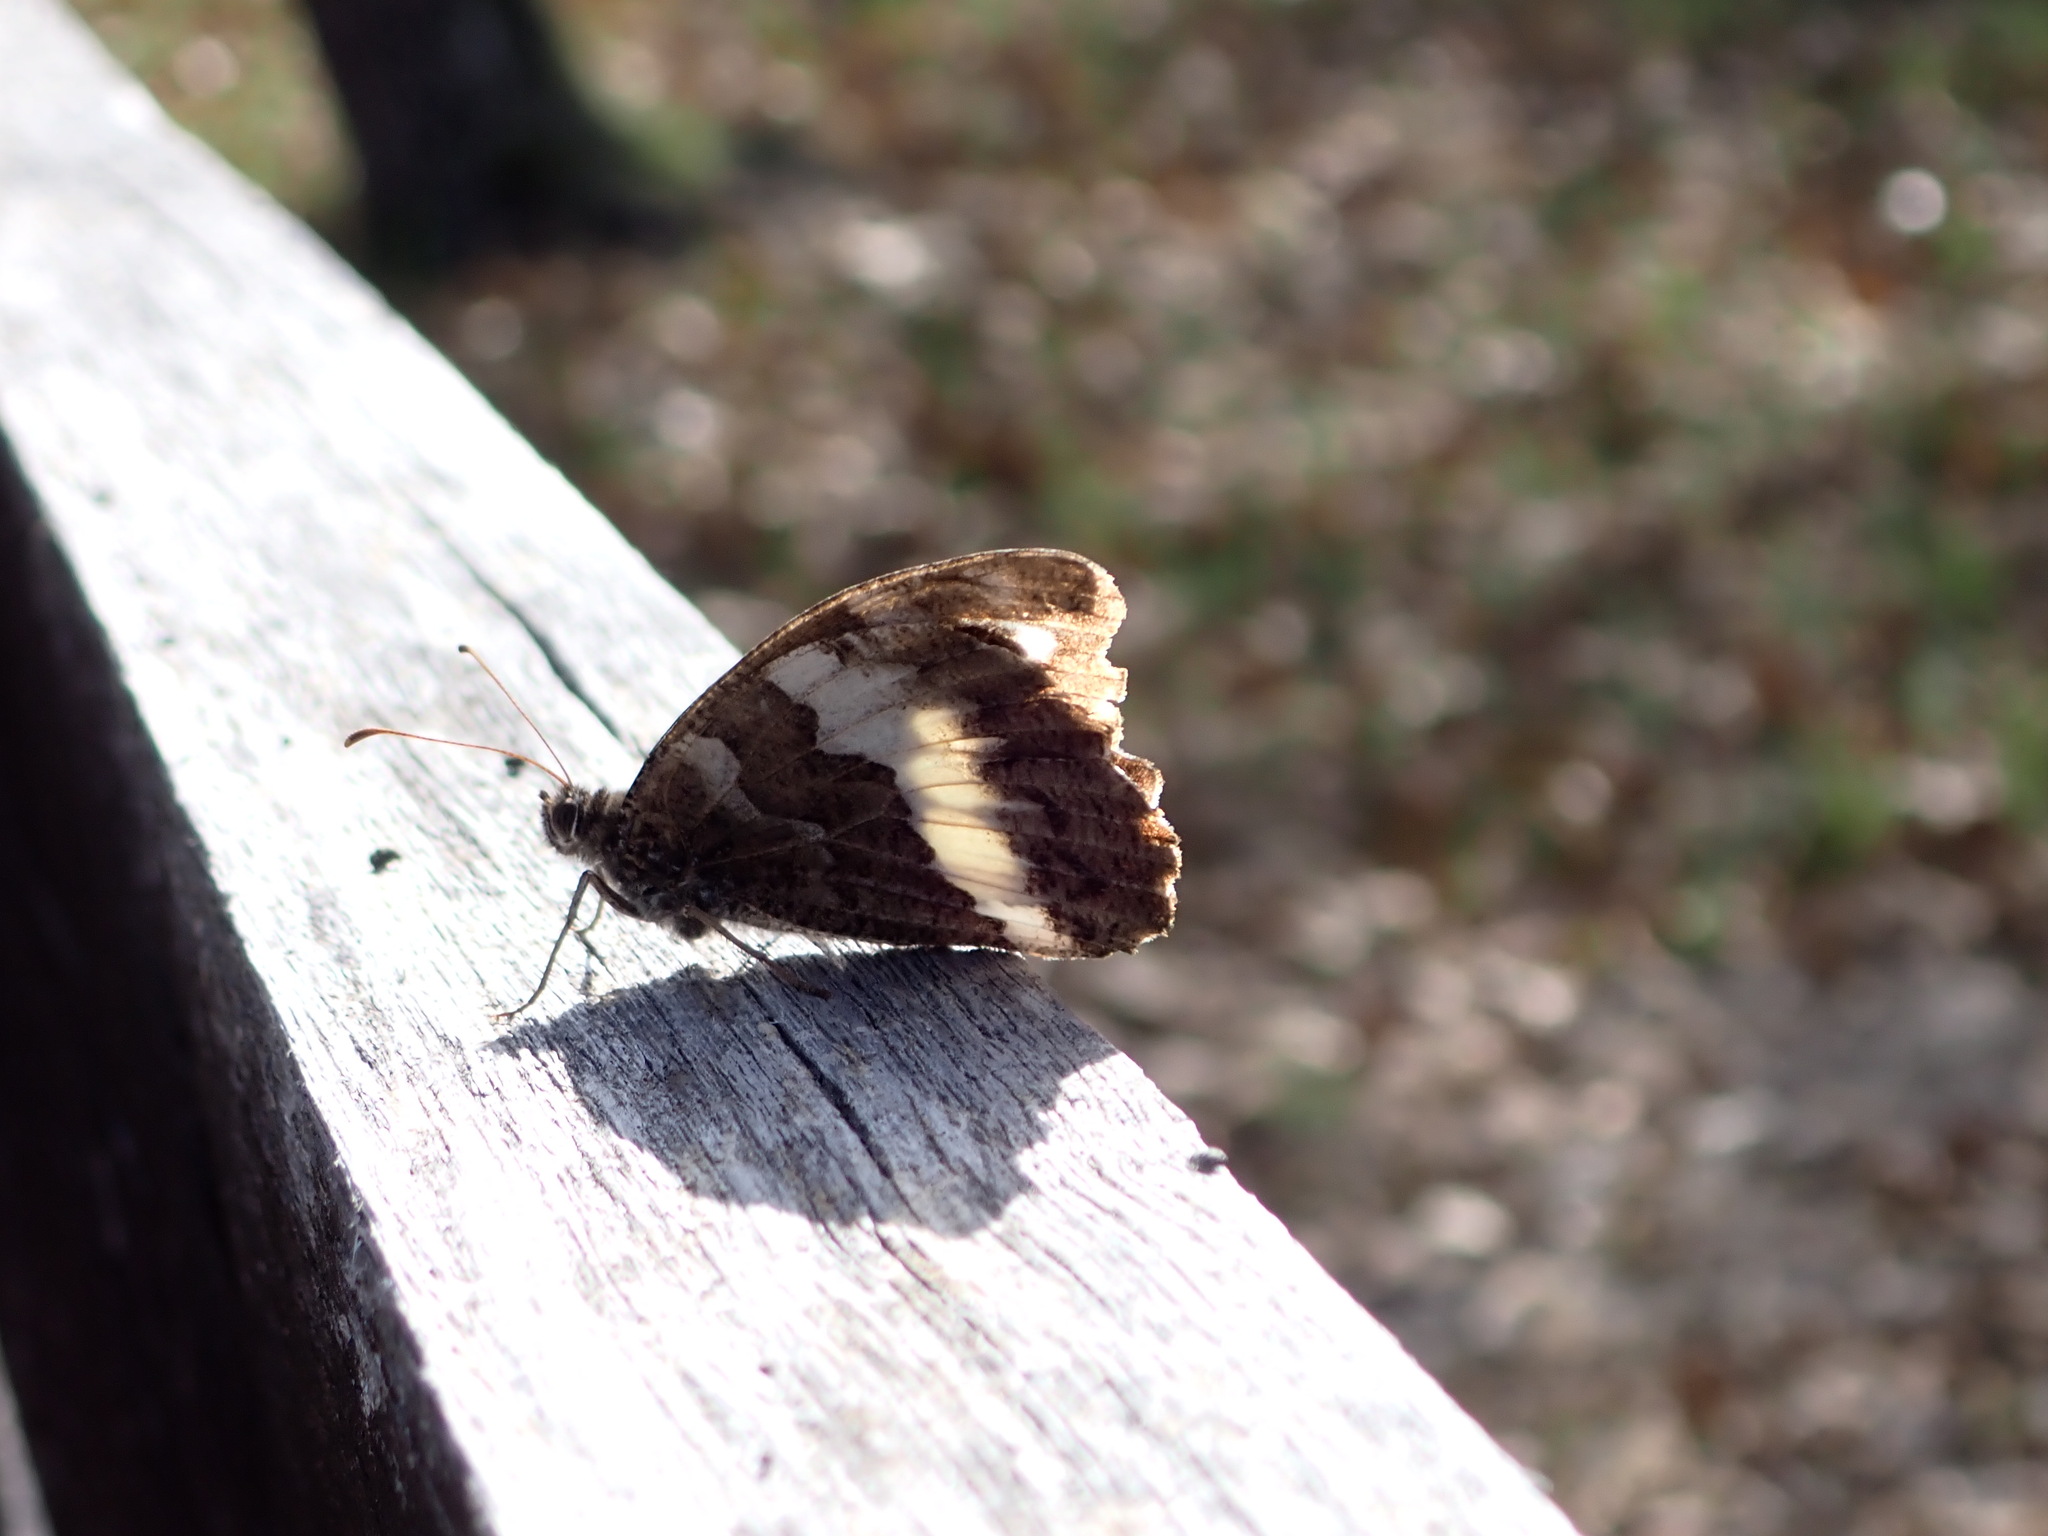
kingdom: Animalia
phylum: Arthropoda
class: Insecta
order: Lepidoptera
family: Lycaenidae
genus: Loweia
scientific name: Loweia tityrus
